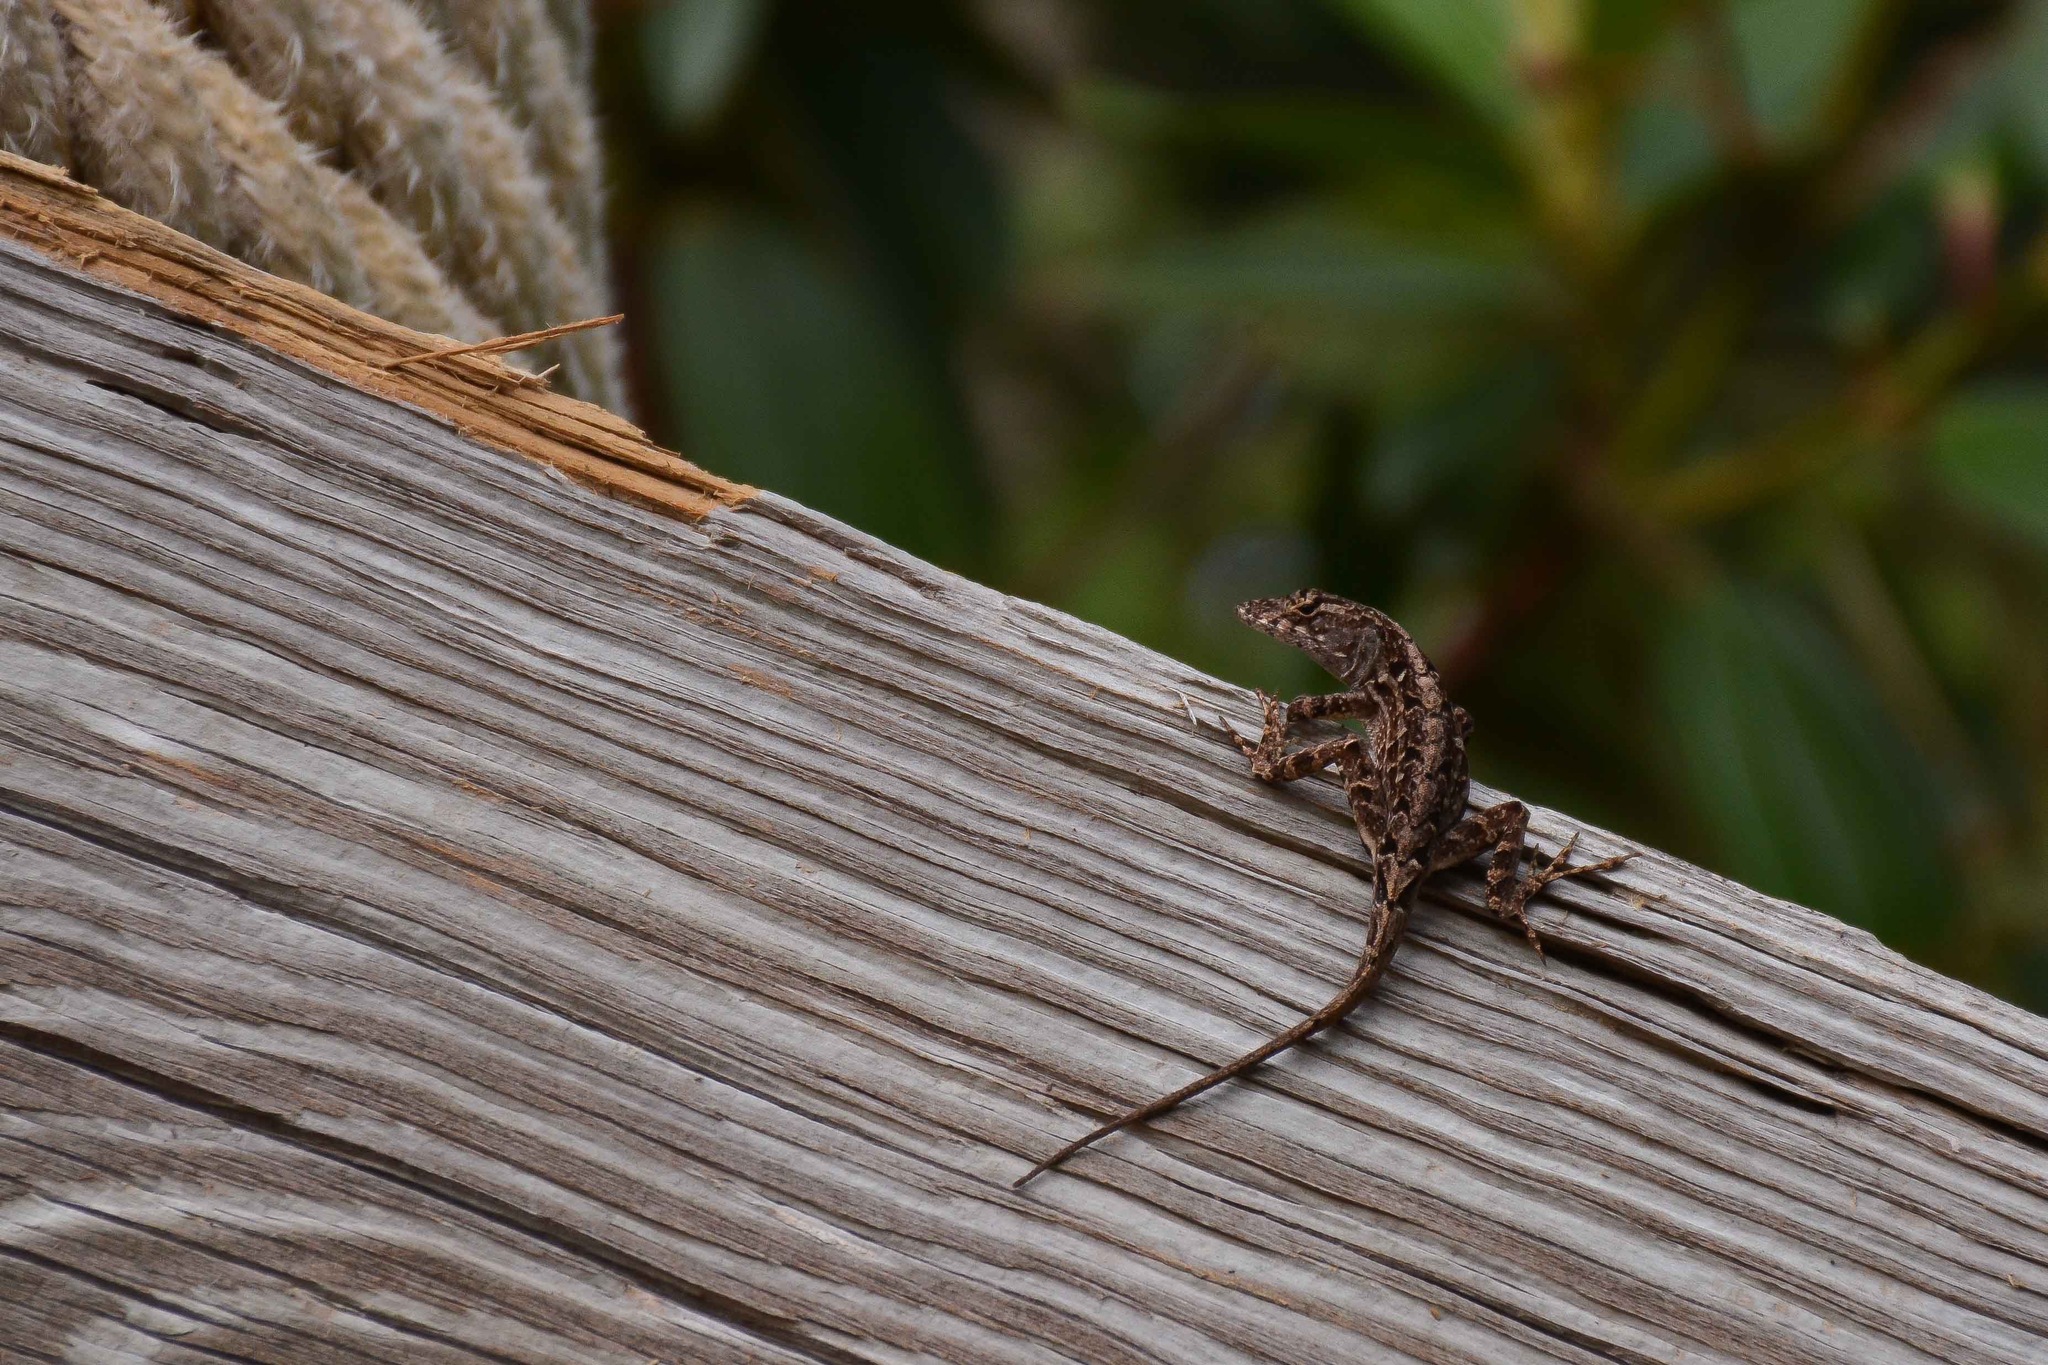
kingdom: Animalia
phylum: Chordata
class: Squamata
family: Dactyloidae
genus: Anolis
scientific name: Anolis sagrei
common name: Brown anole
